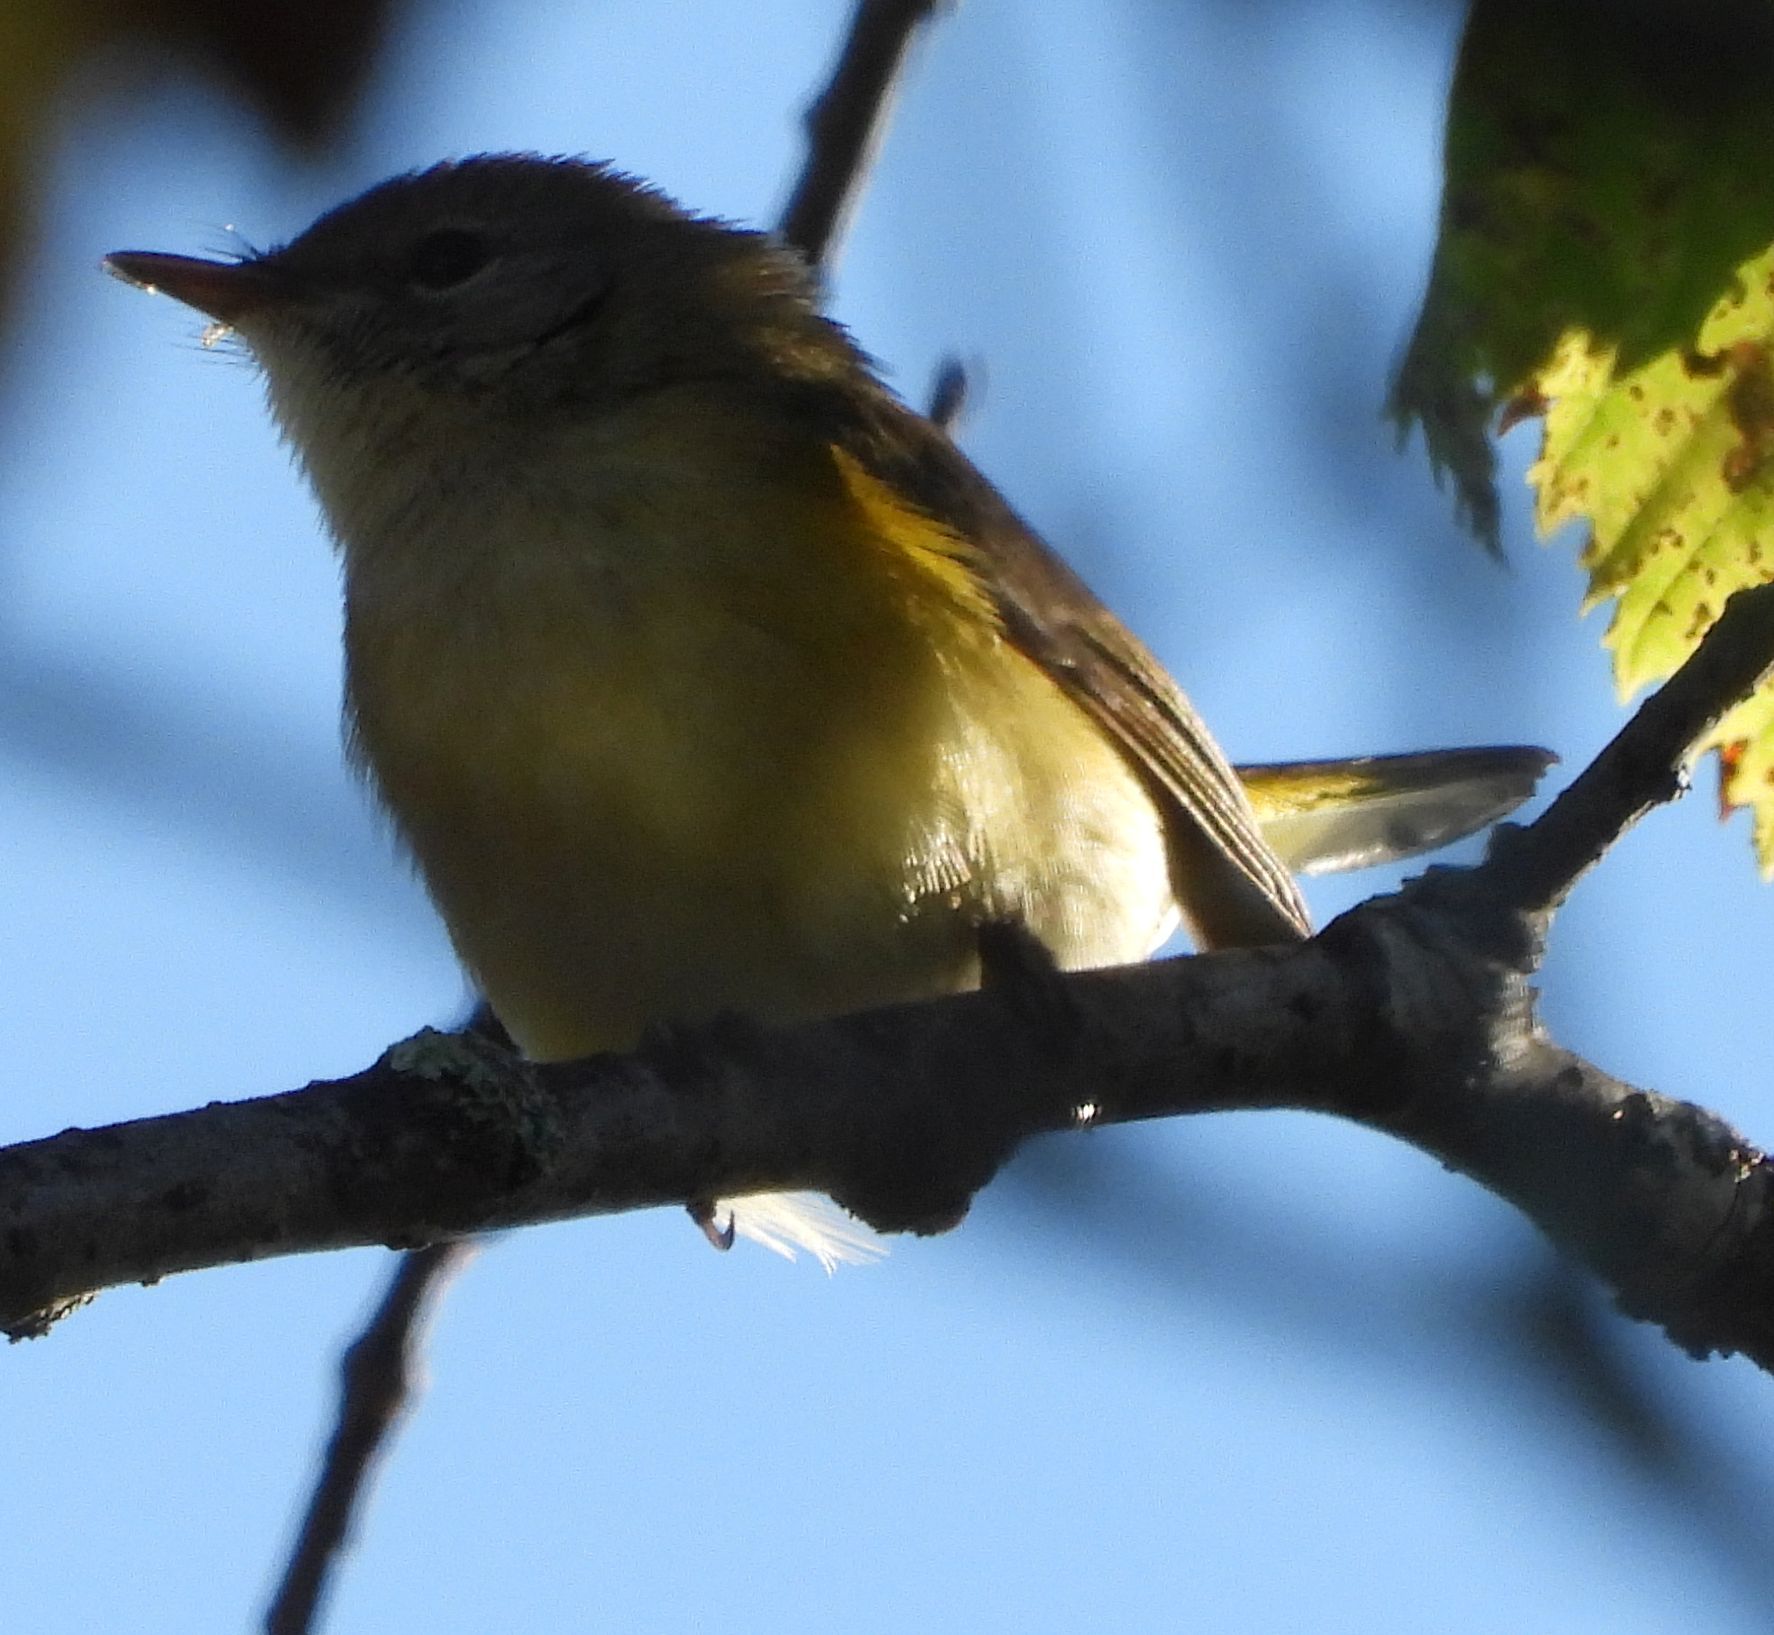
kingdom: Animalia
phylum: Chordata
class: Aves
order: Passeriformes
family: Parulidae
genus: Setophaga
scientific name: Setophaga ruticilla
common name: American redstart
